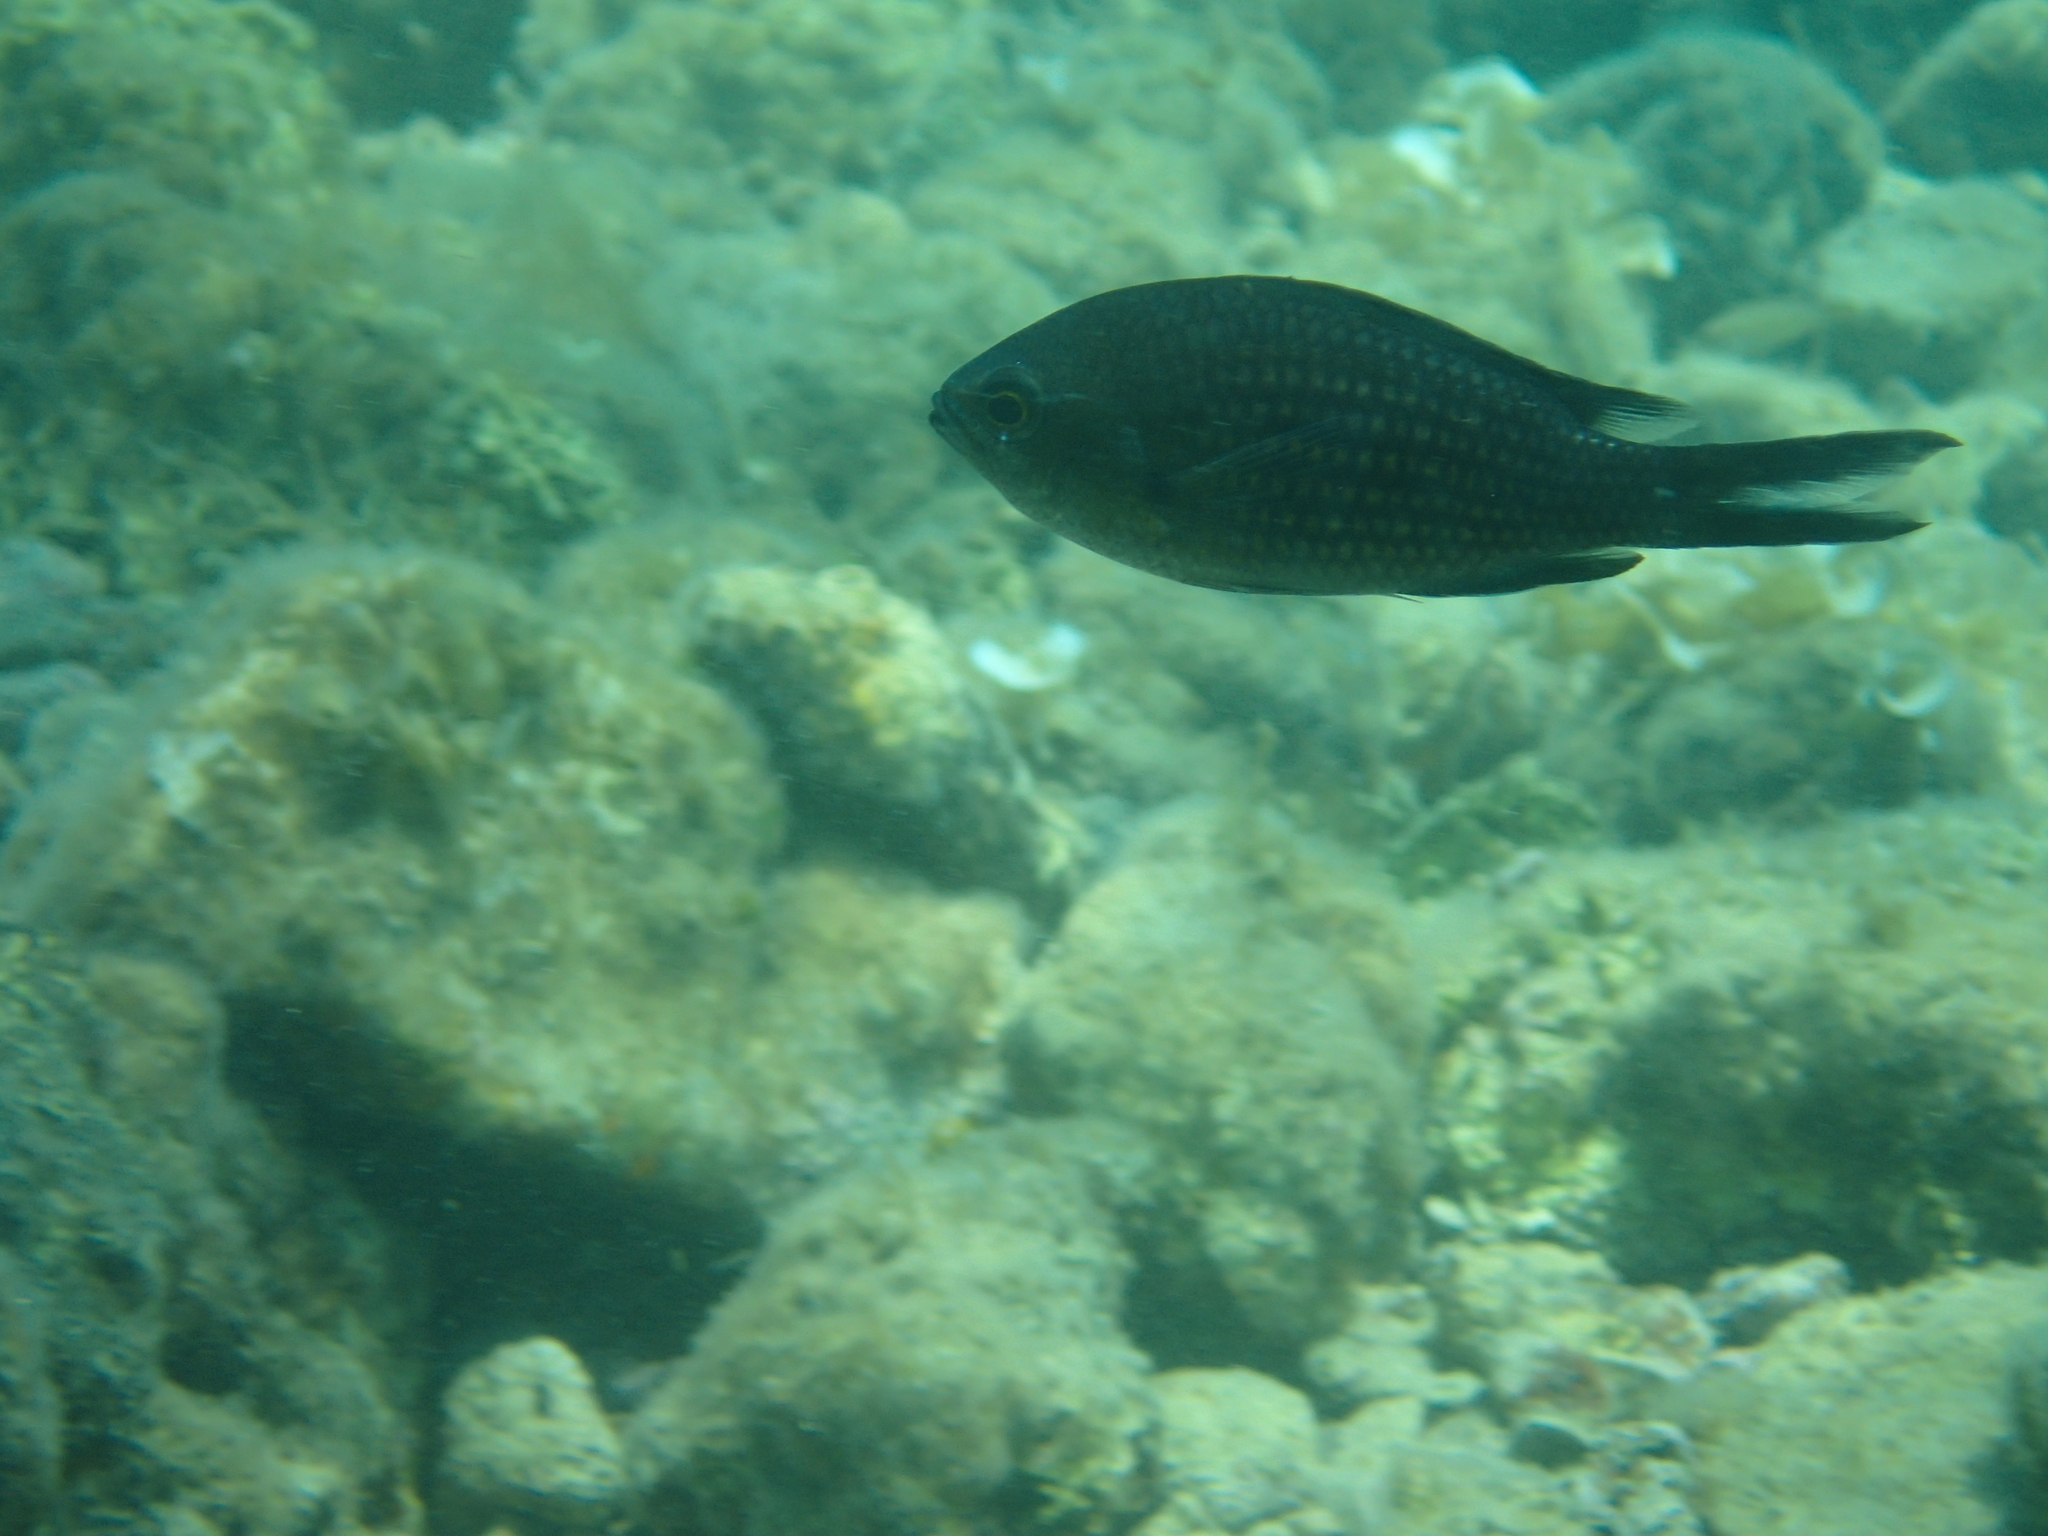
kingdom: Animalia
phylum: Chordata
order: Perciformes
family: Pomacentridae
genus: Chromis
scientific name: Chromis chromis
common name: Damselfish
